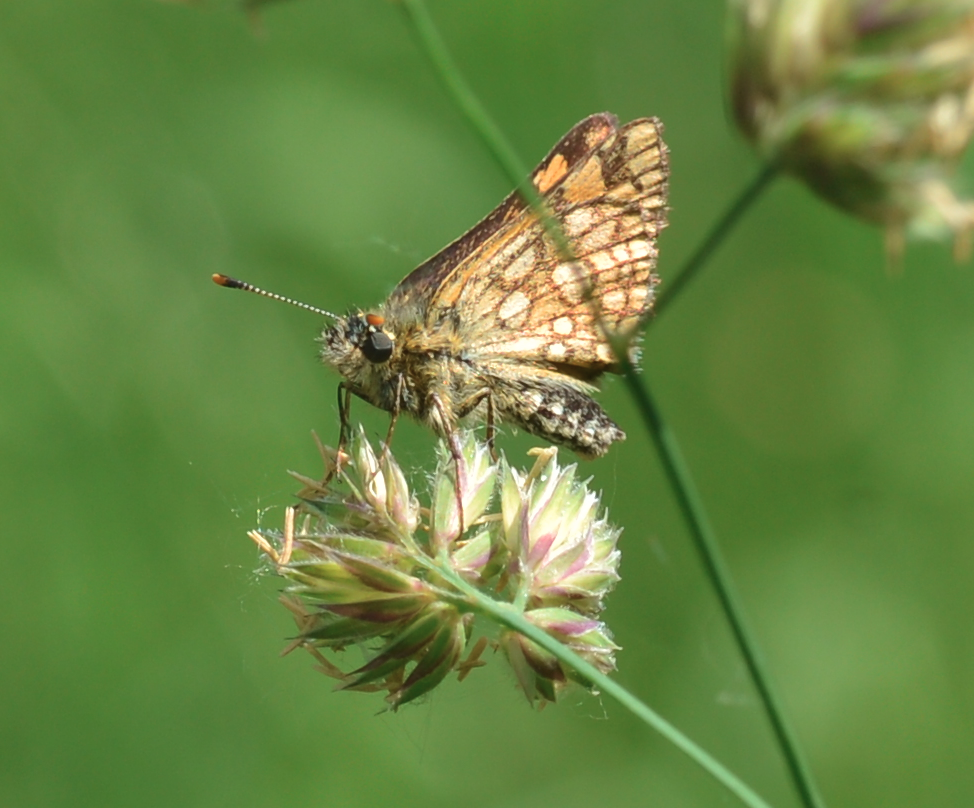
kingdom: Animalia
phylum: Arthropoda
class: Insecta
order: Lepidoptera
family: Hesperiidae
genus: Carterocephalus
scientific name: Carterocephalus palaemon
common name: Chequered skipper
